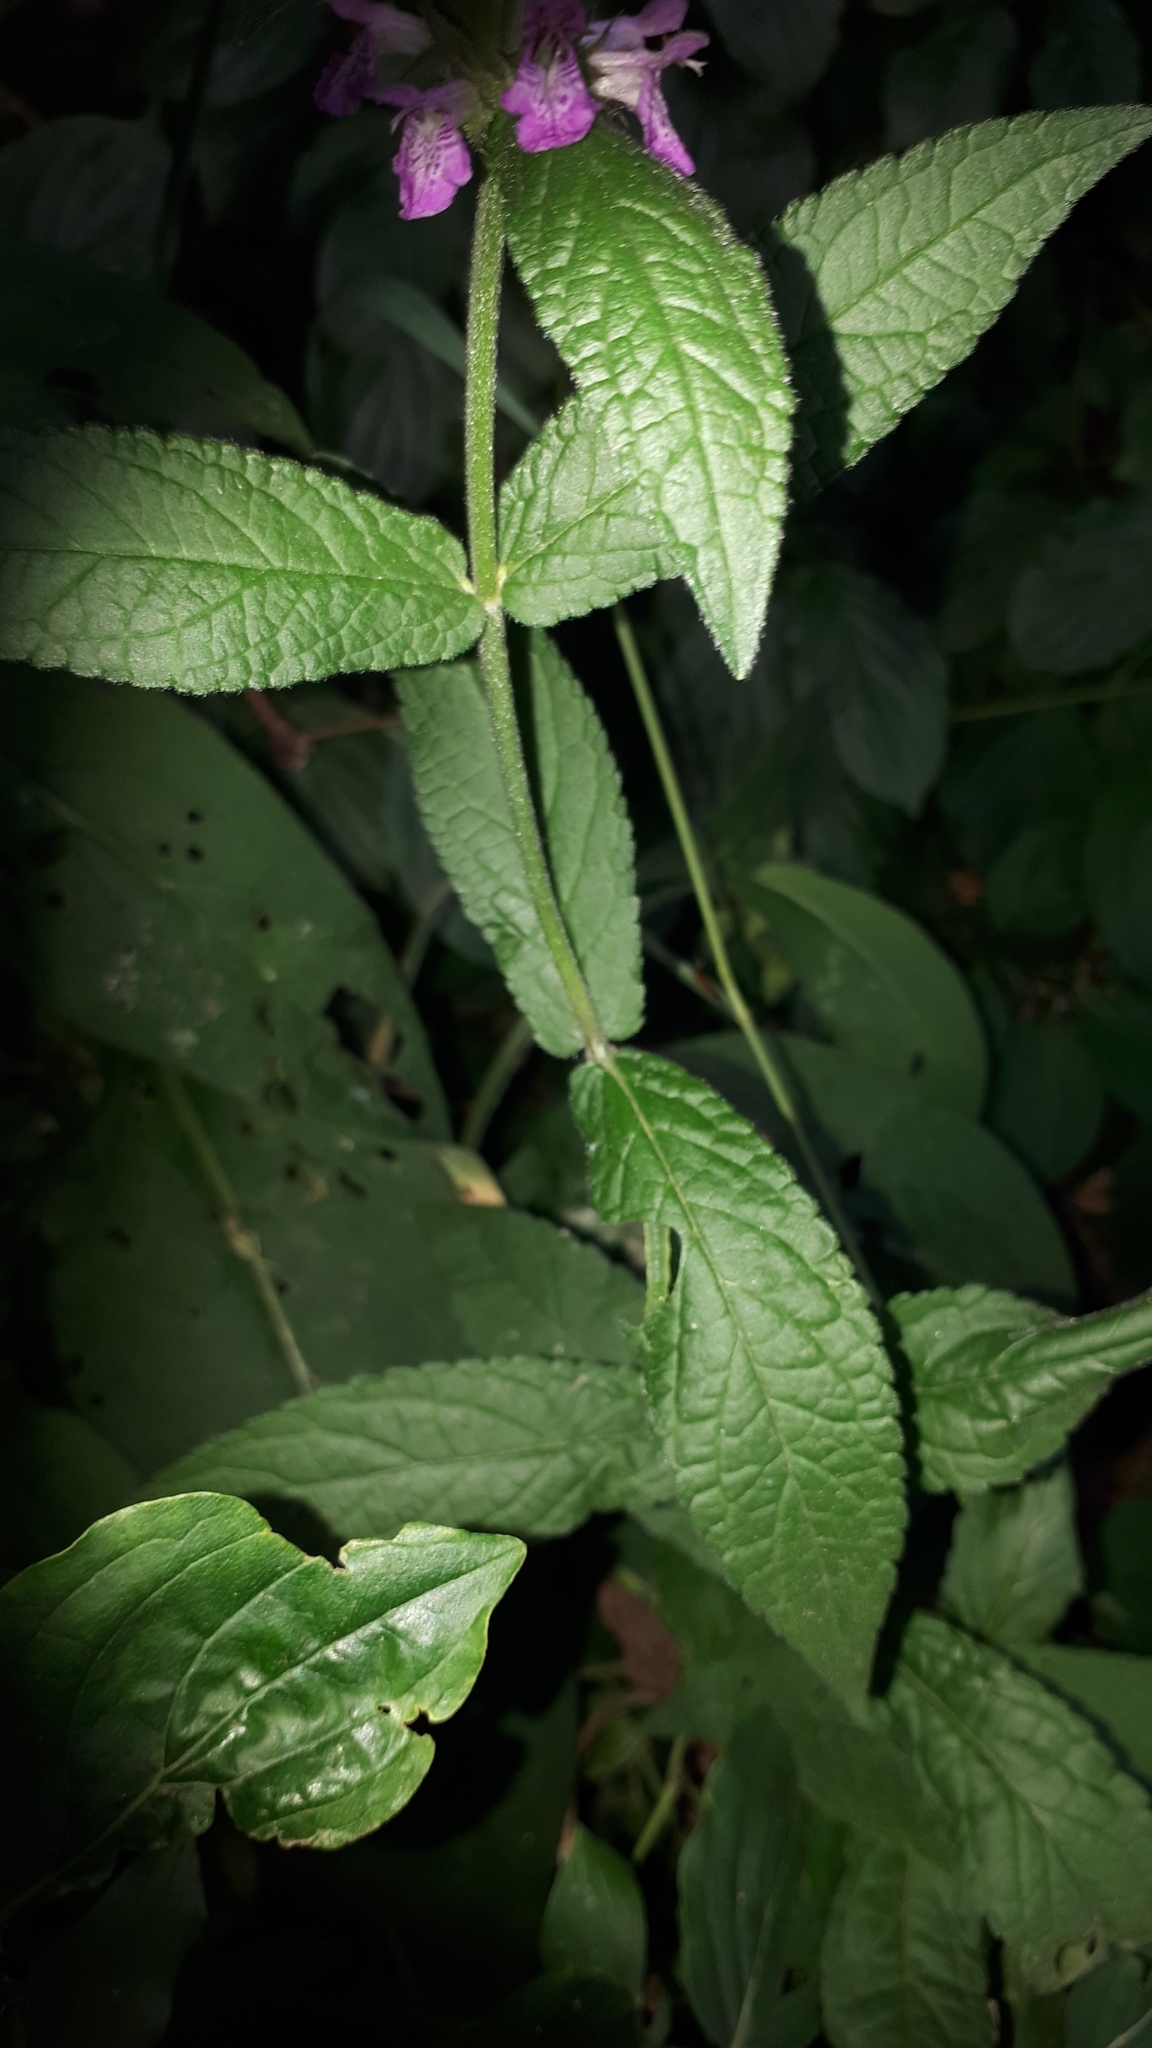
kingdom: Plantae
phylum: Tracheophyta
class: Magnoliopsida
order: Lamiales
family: Lamiaceae
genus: Stachys
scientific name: Stachys palustris
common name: Marsh woundwort
